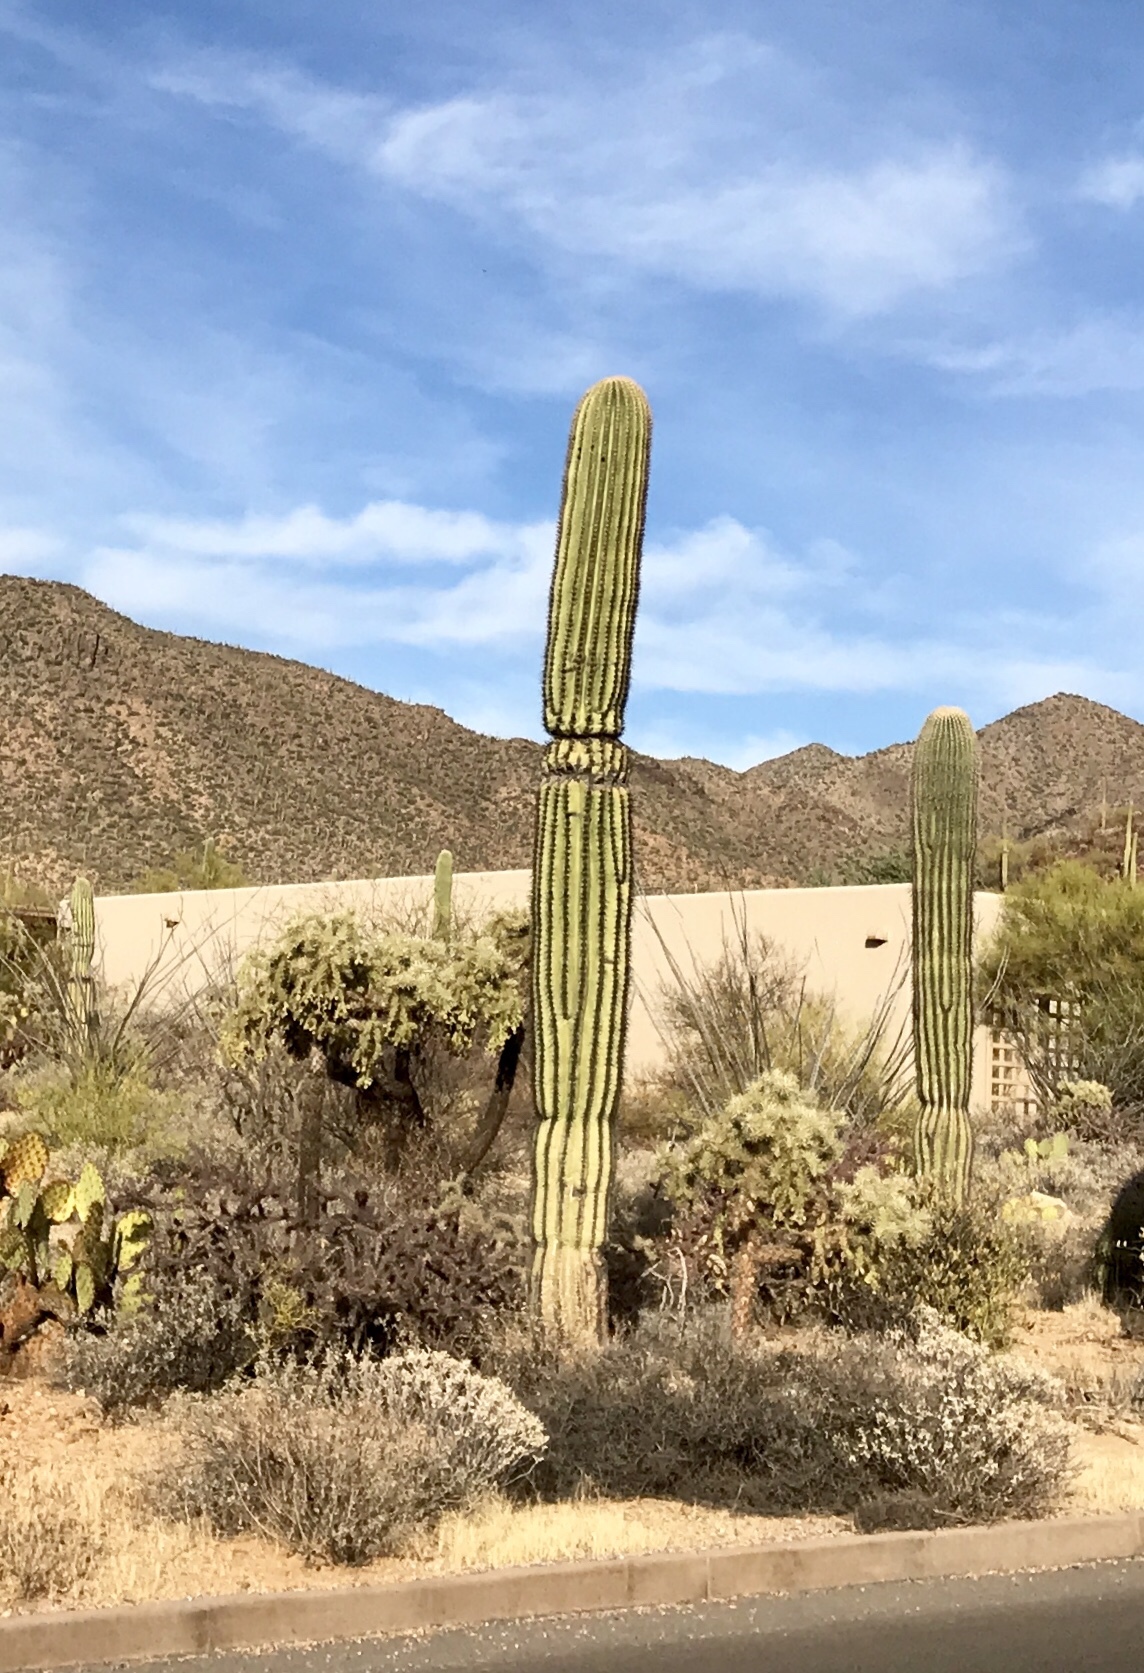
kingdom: Plantae
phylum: Tracheophyta
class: Magnoliopsida
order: Caryophyllales
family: Cactaceae
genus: Carnegiea
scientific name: Carnegiea gigantea
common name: Saguaro
